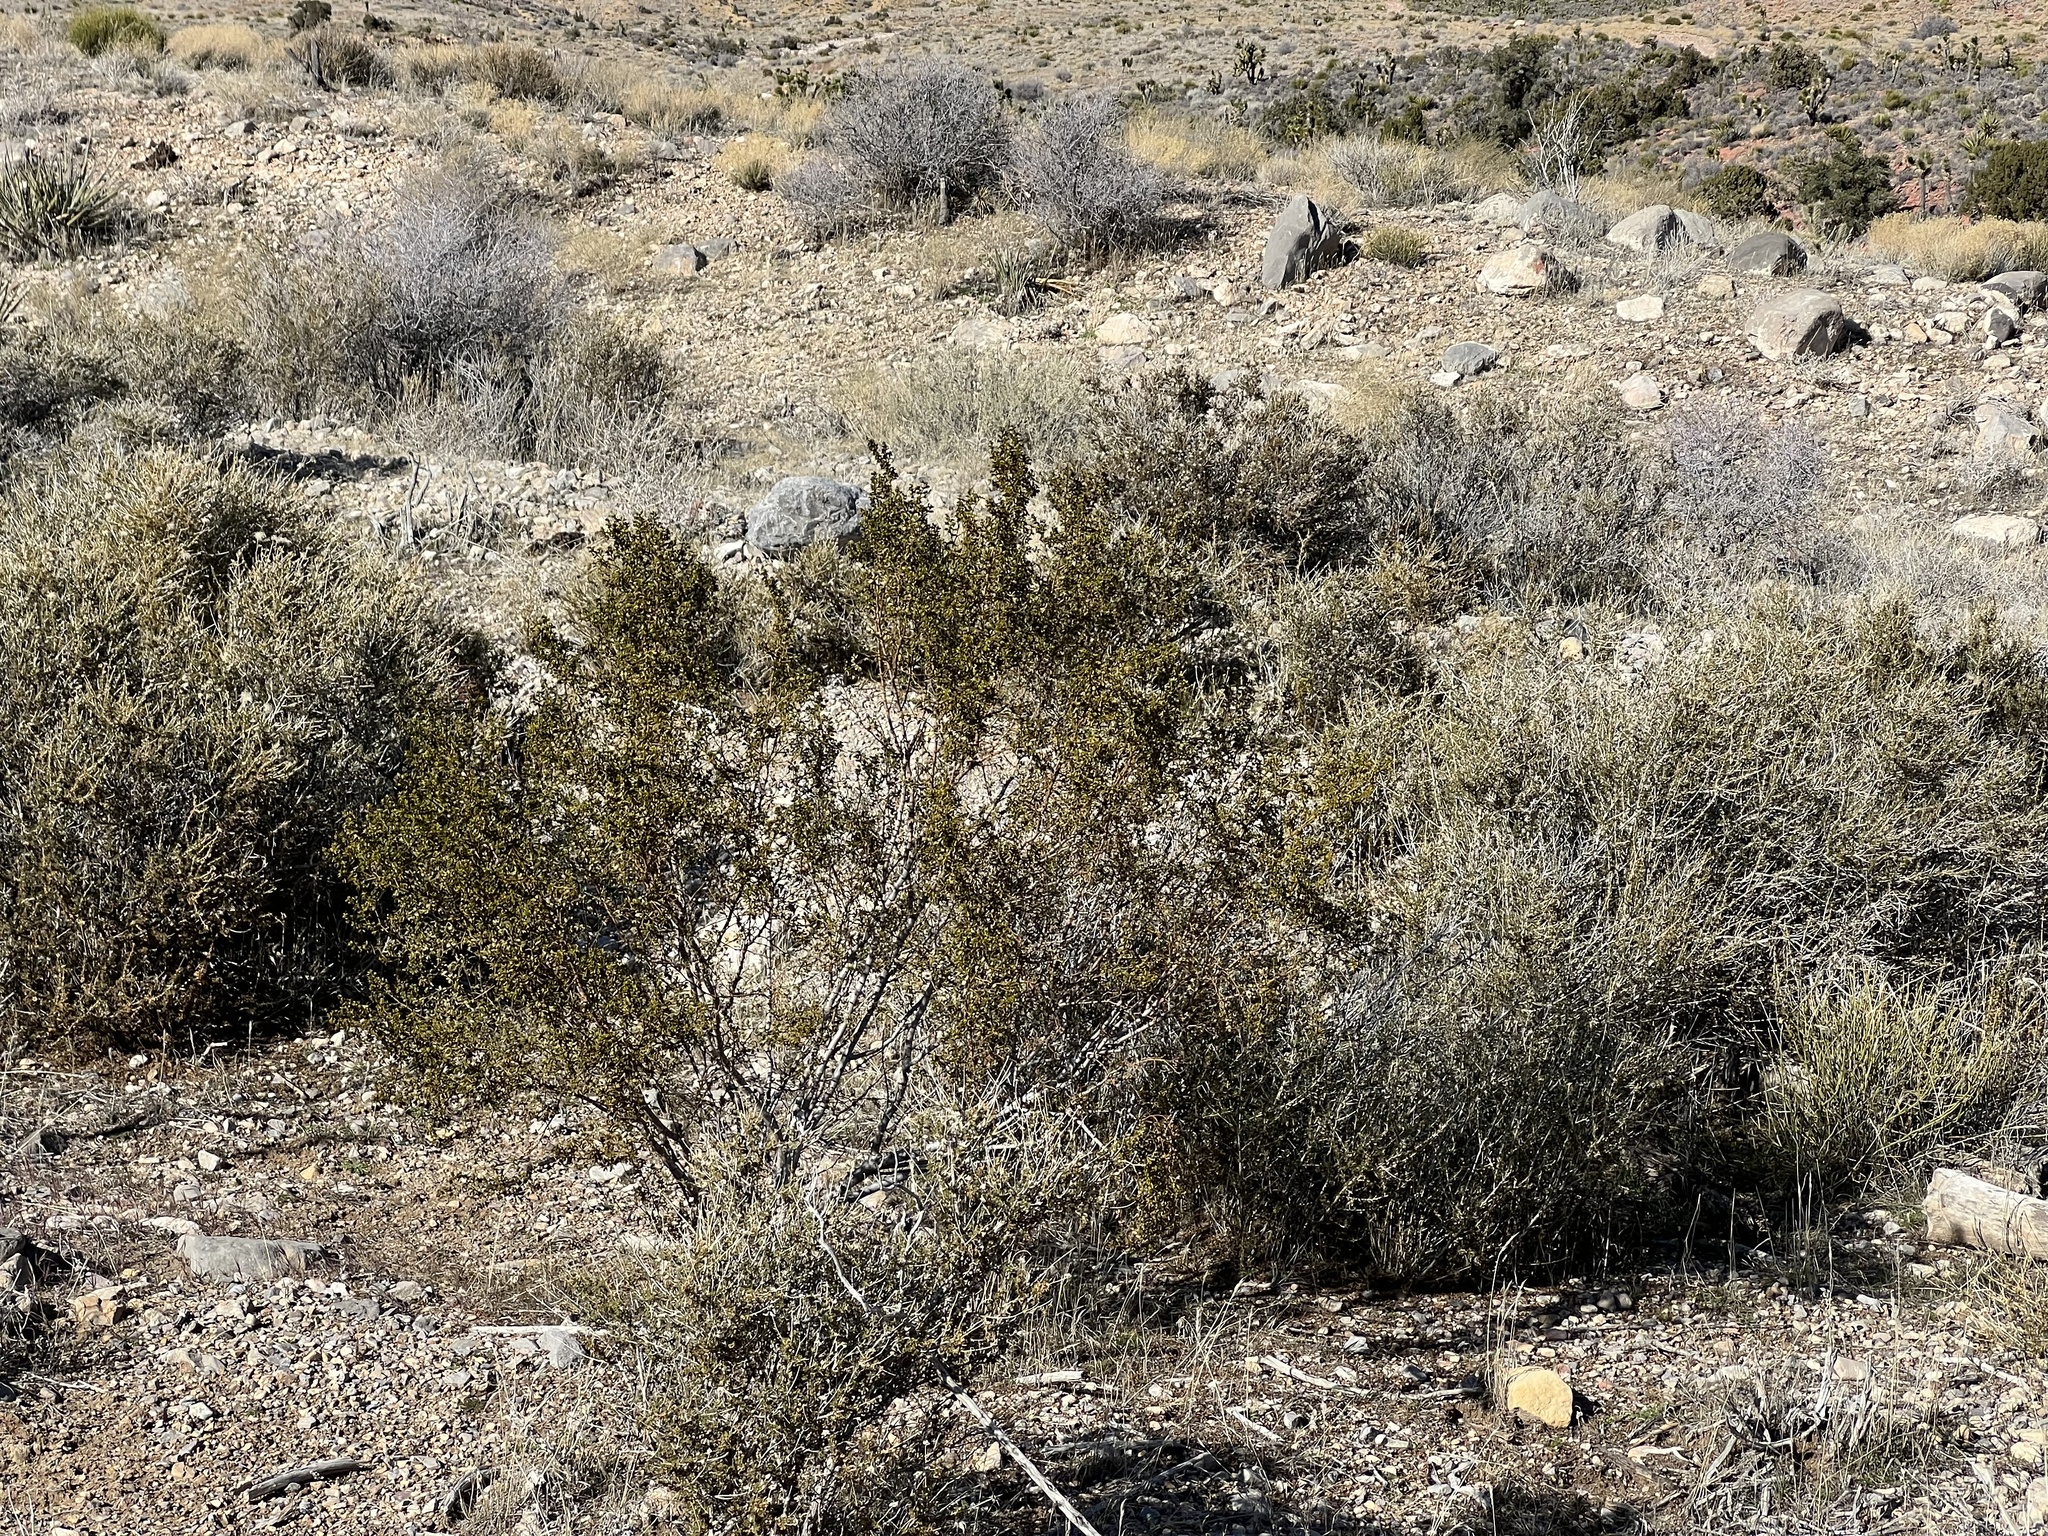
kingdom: Plantae
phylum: Tracheophyta
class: Magnoliopsida
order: Zygophyllales
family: Zygophyllaceae
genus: Larrea
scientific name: Larrea tridentata
